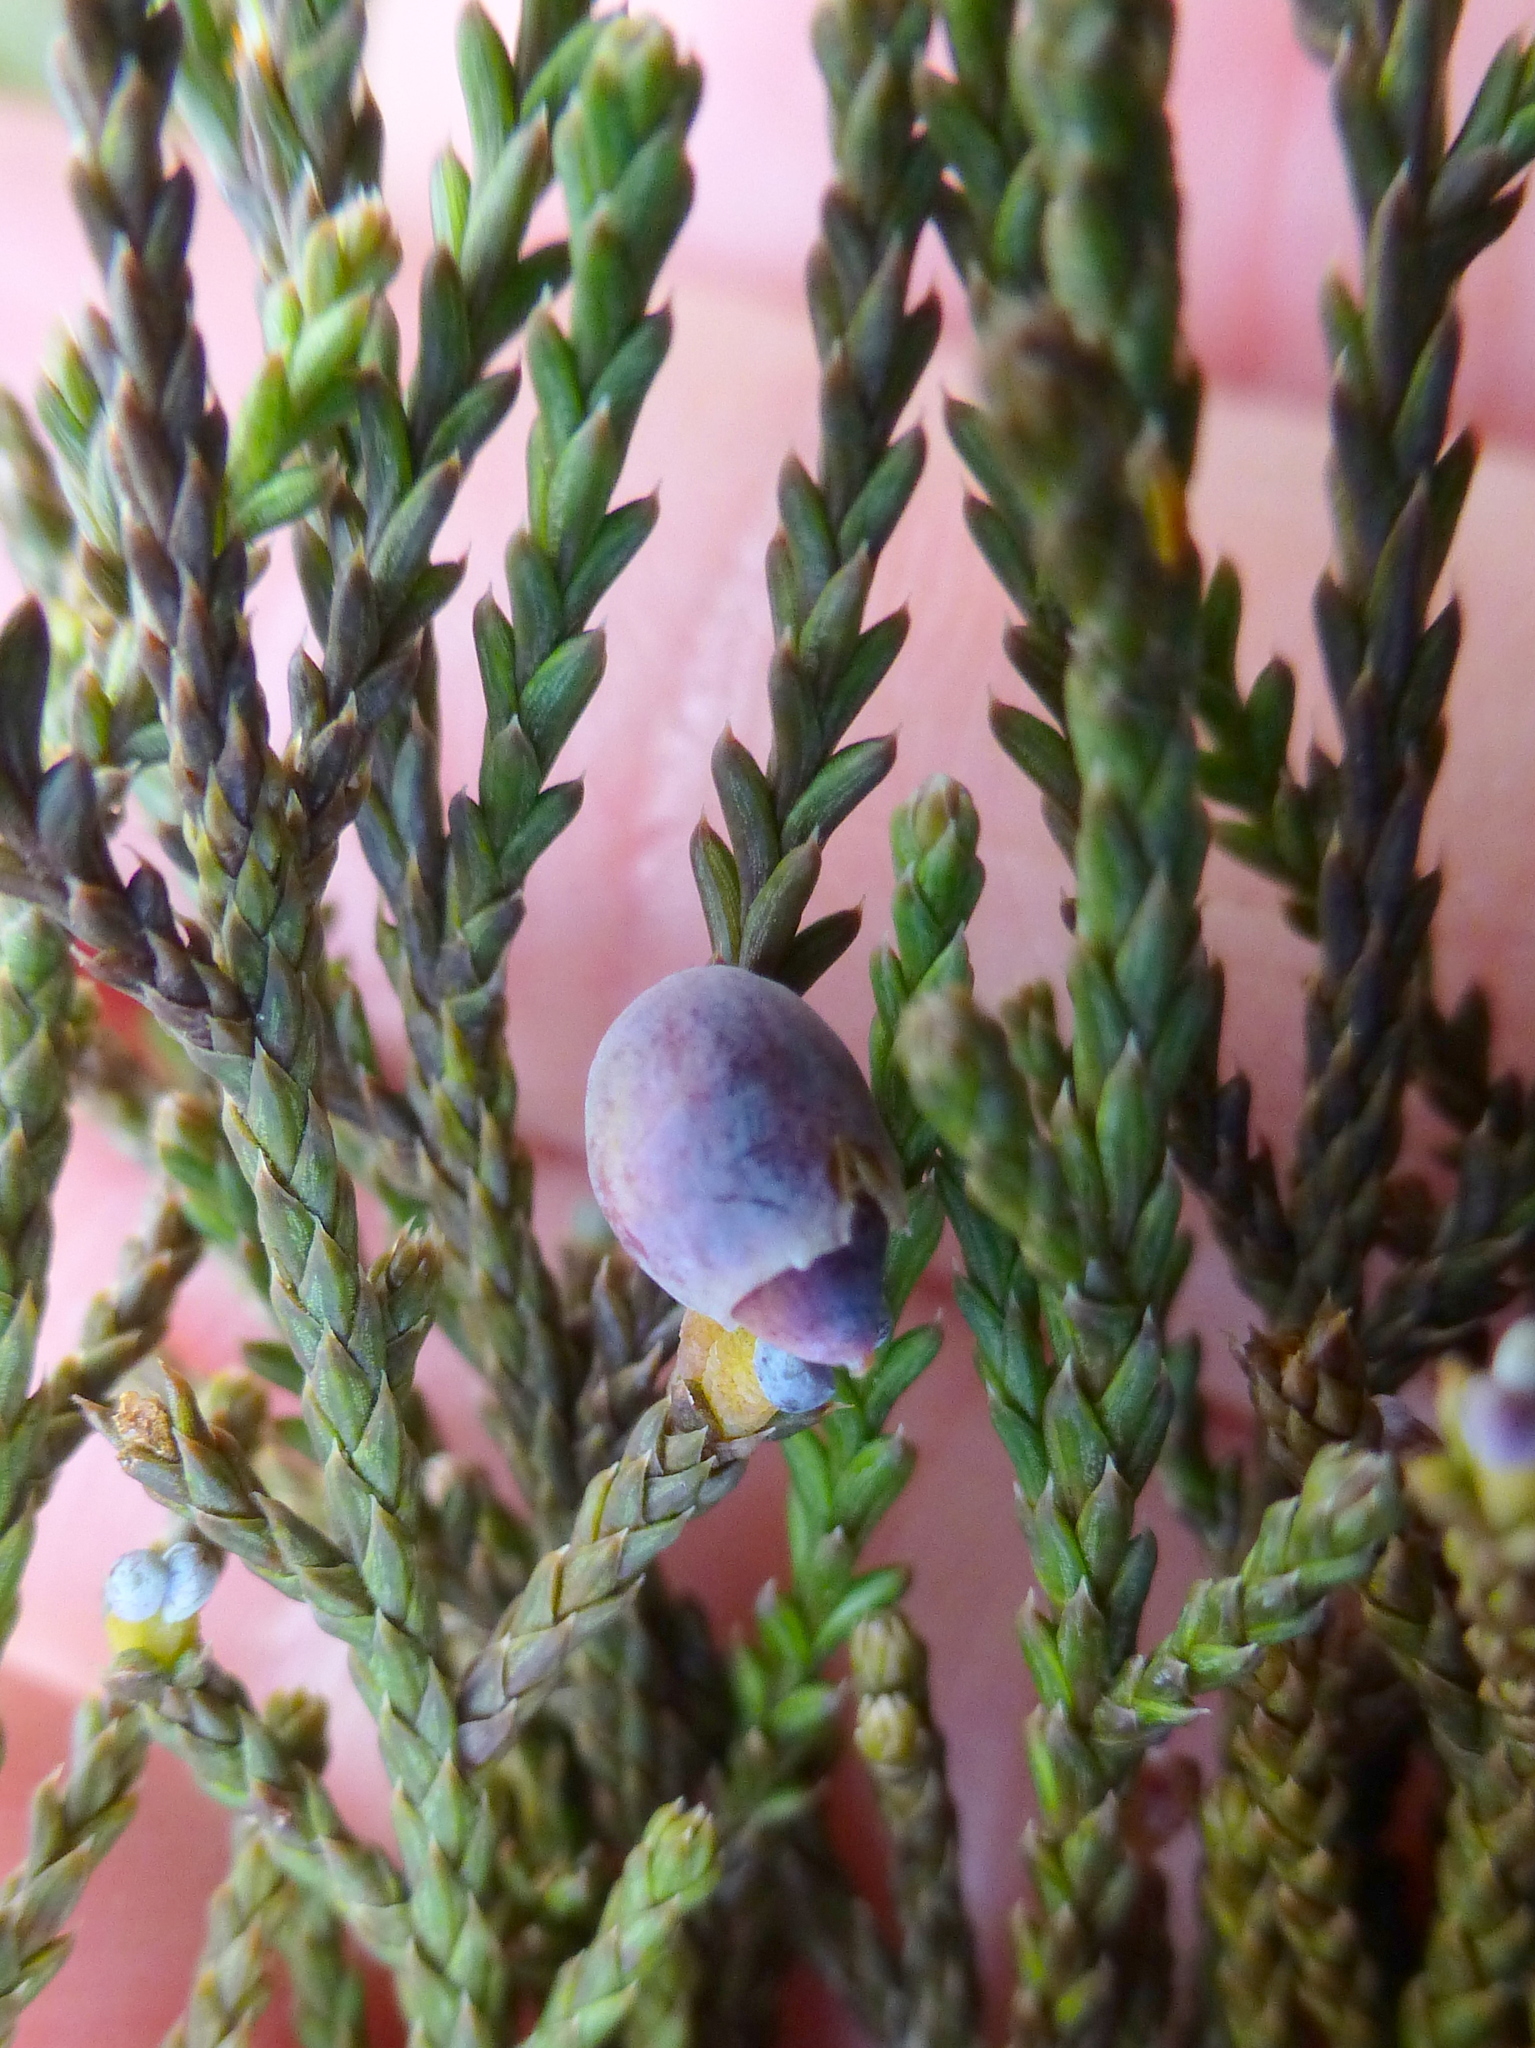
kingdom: Plantae
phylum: Tracheophyta
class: Pinopsida
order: Pinales
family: Podocarpaceae
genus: Dacrycarpus
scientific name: Dacrycarpus dacrydioides
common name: White pine
